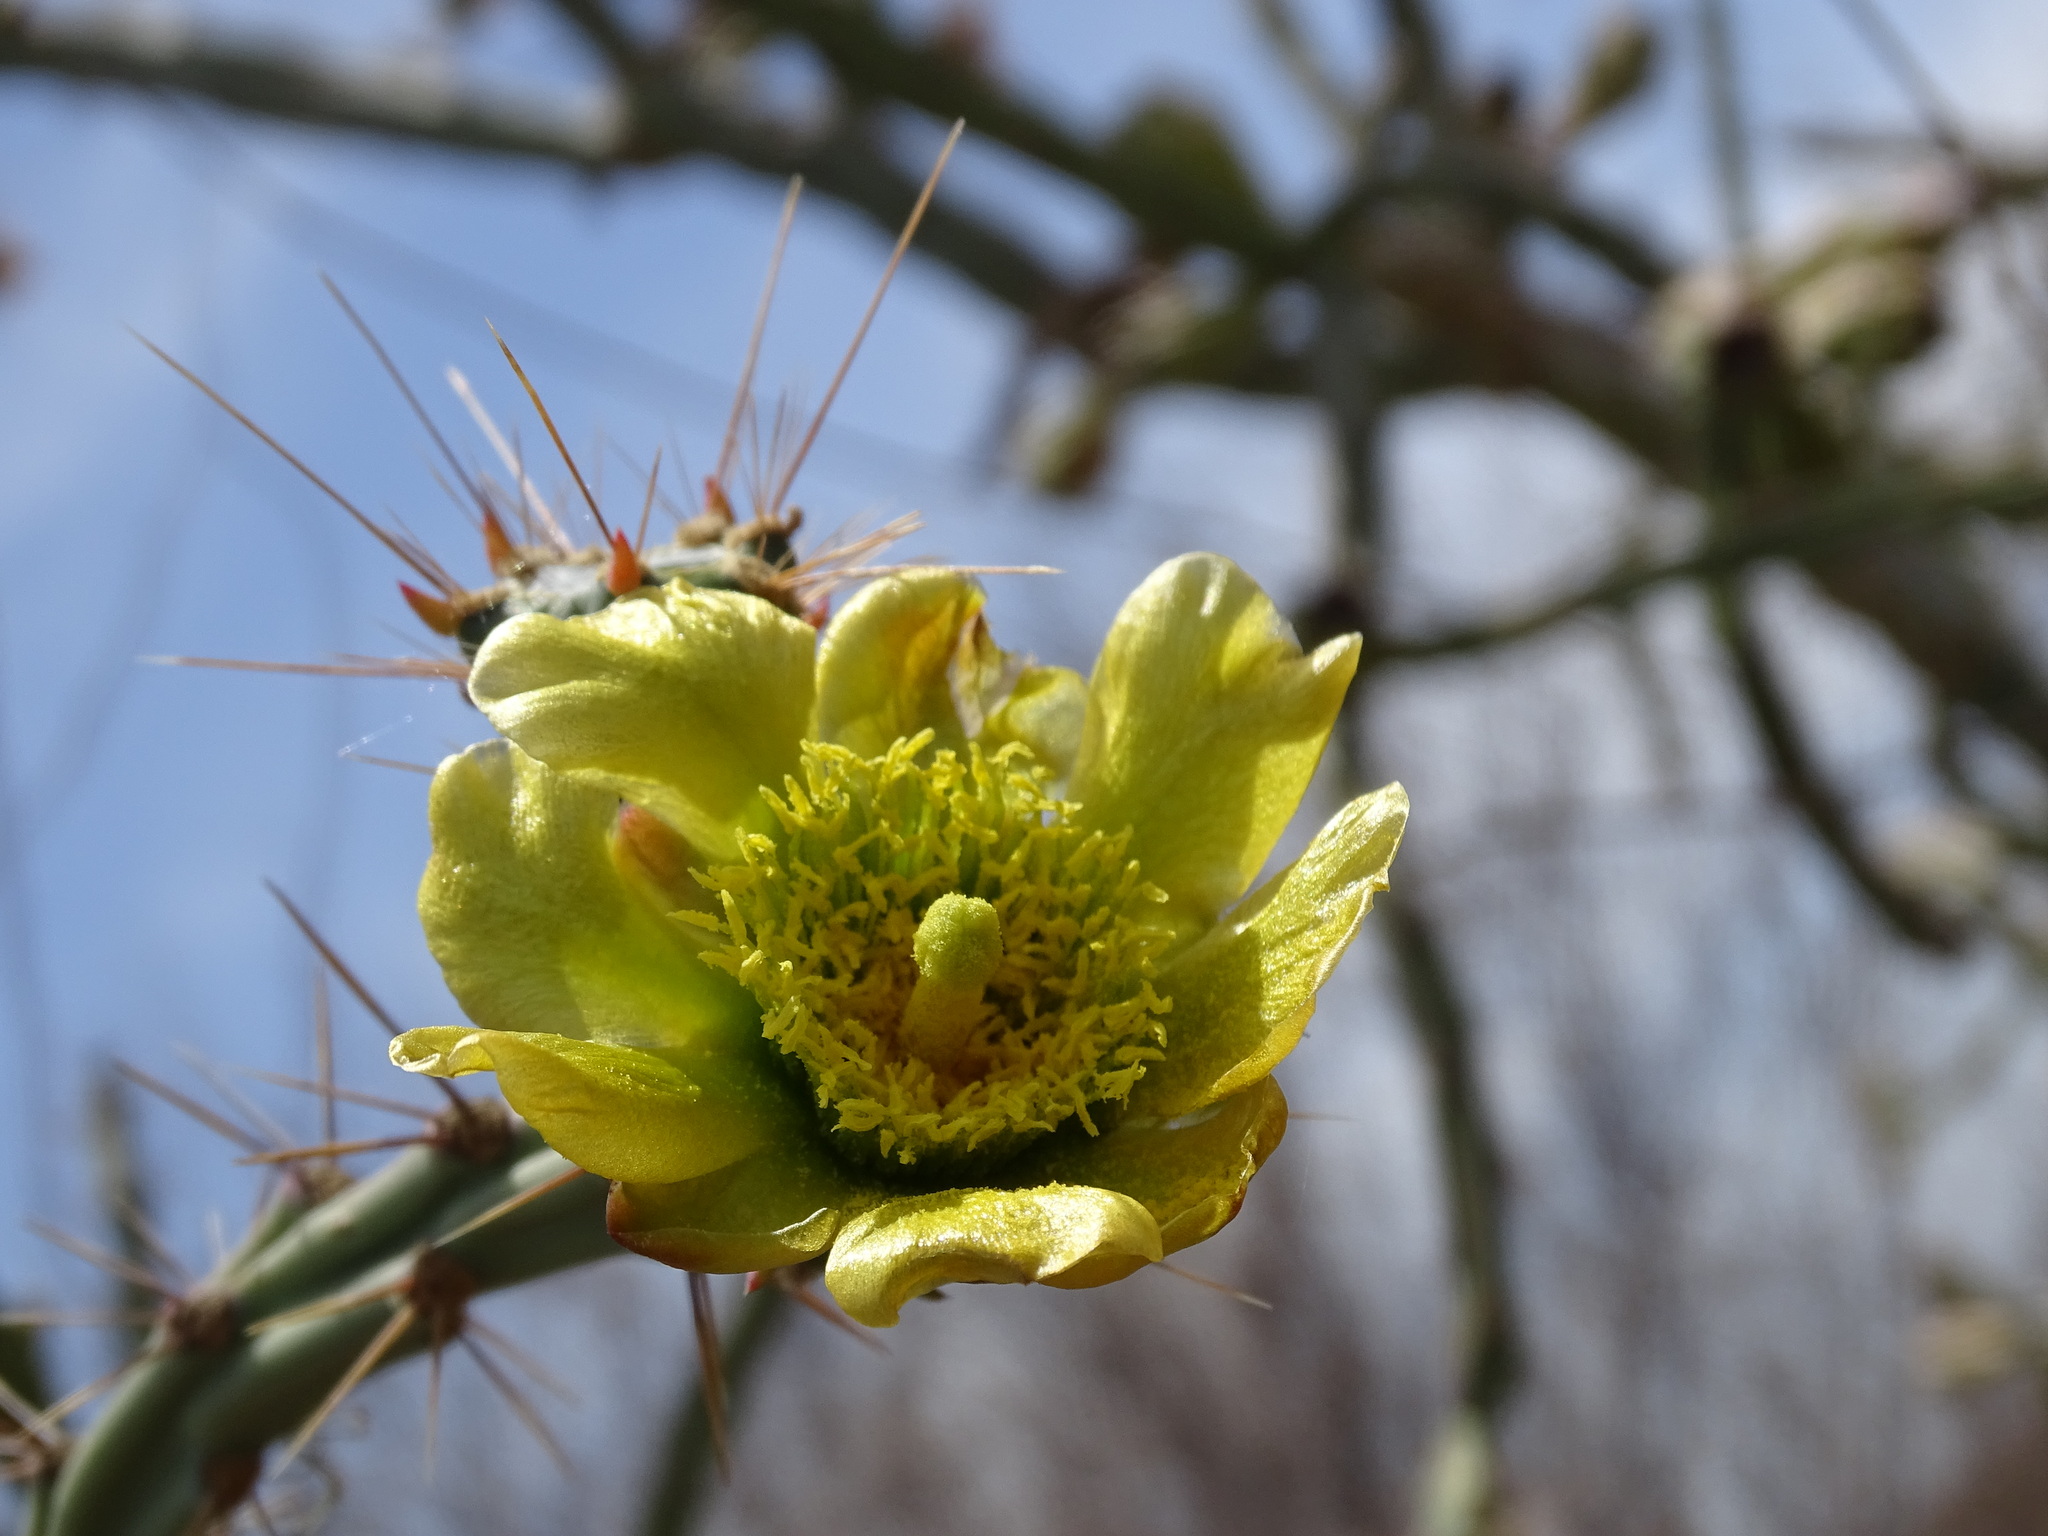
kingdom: Plantae
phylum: Tracheophyta
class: Magnoliopsida
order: Caryophyllales
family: Cactaceae
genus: Cylindropuntia
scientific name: Cylindropuntia thurberi
